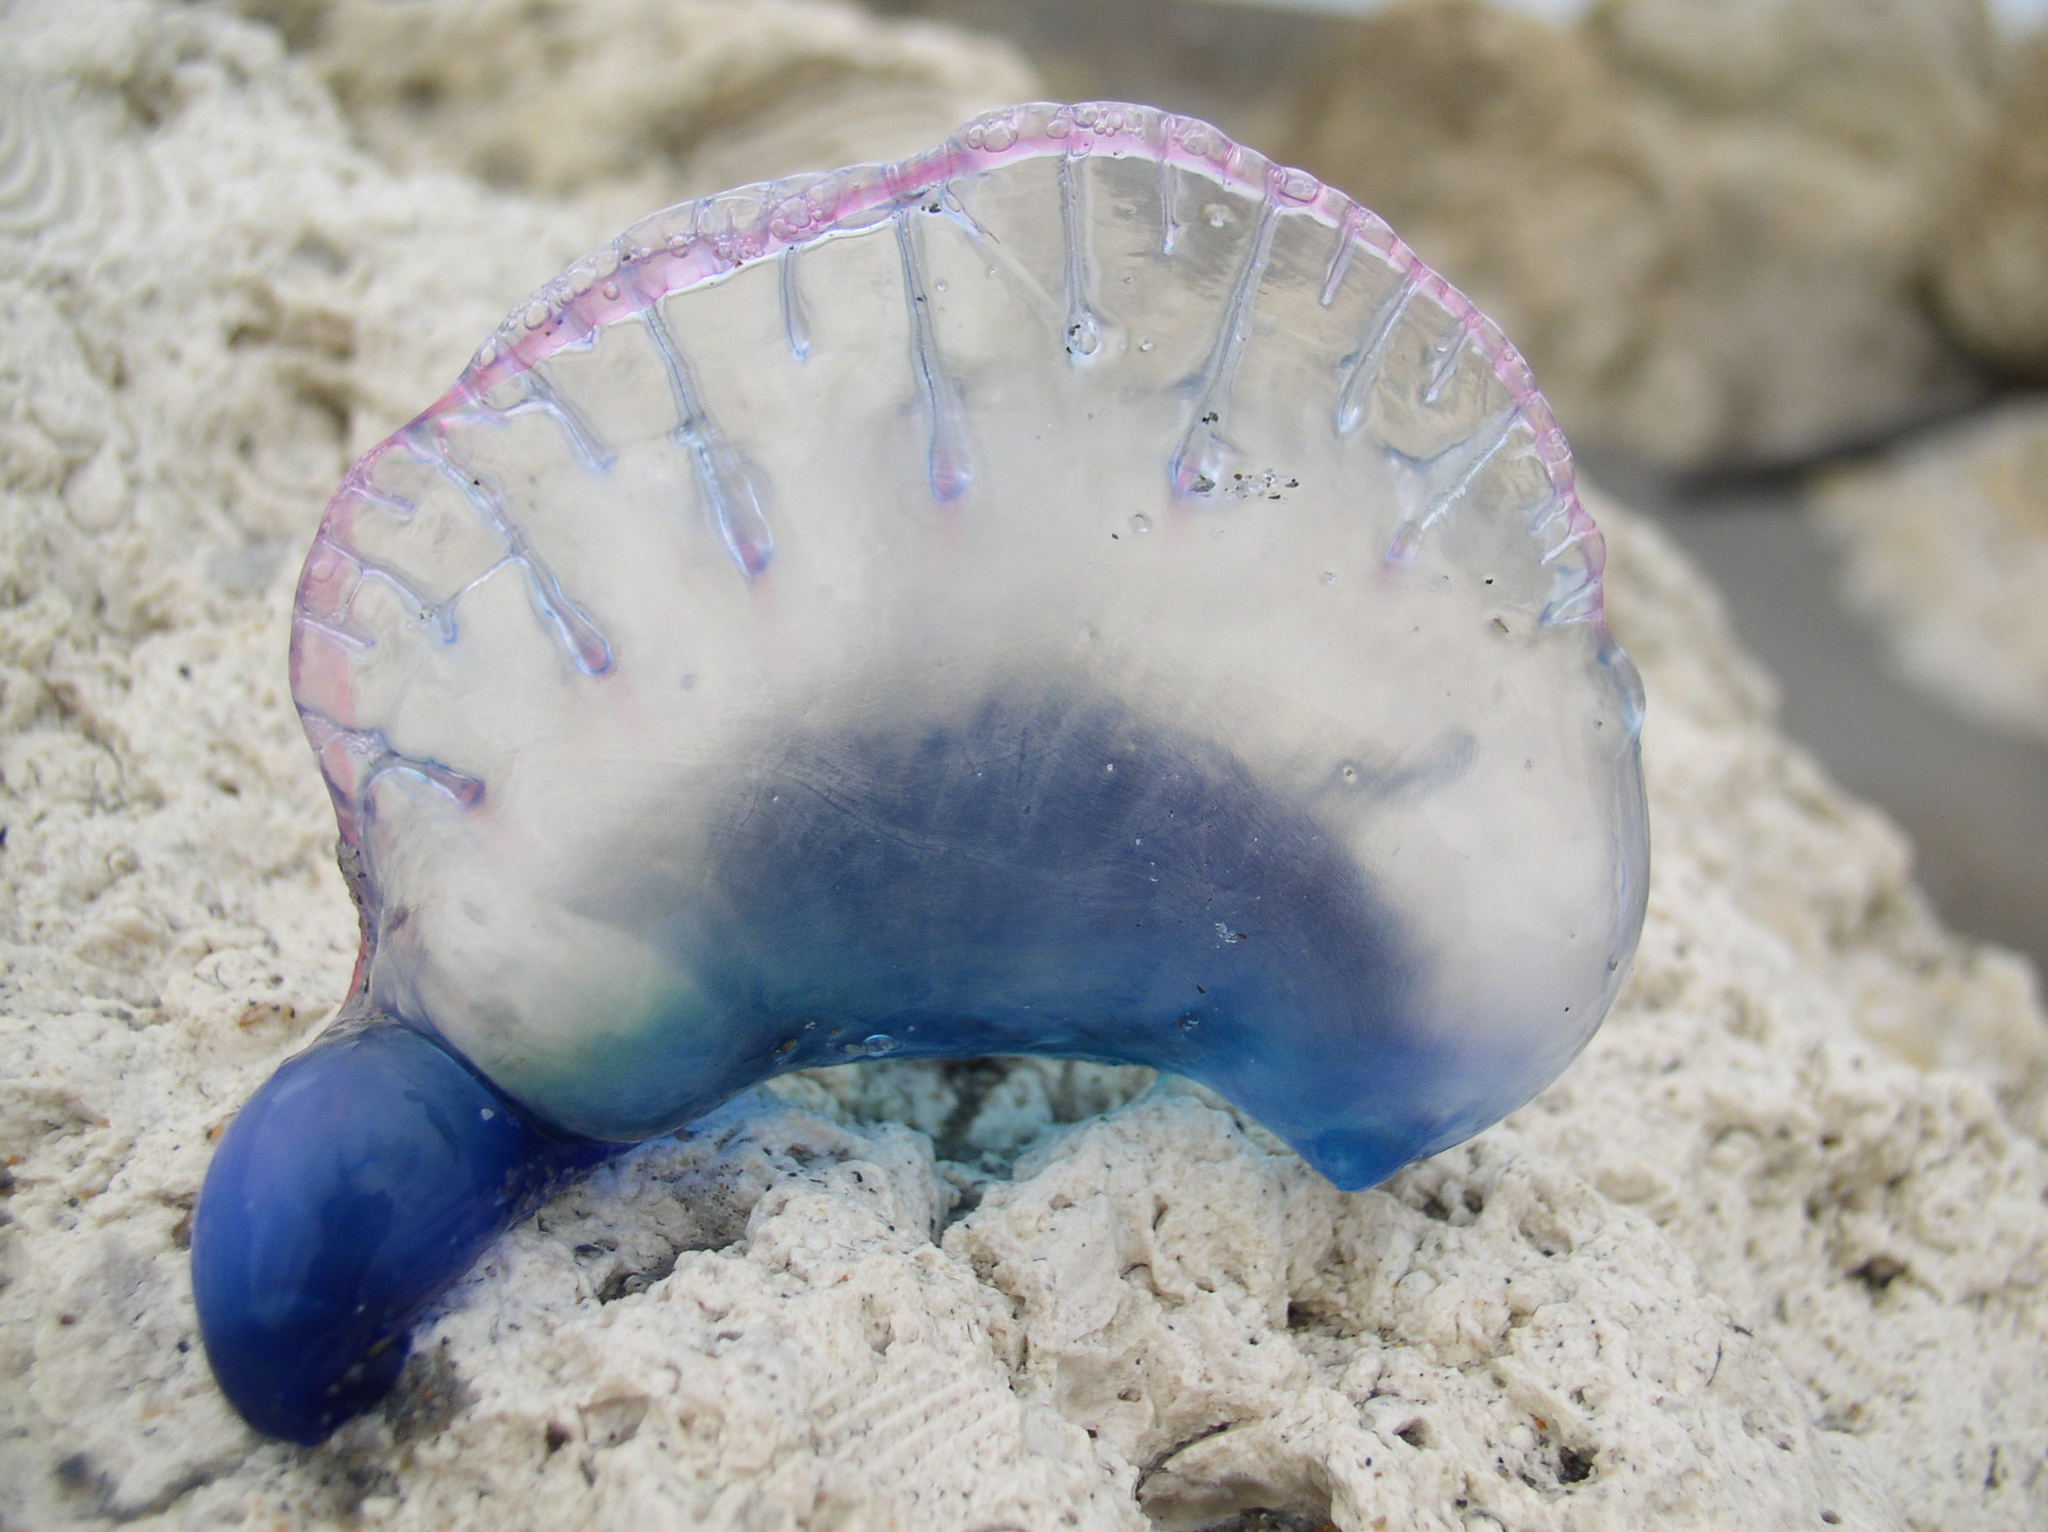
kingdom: Animalia
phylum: Cnidaria
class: Hydrozoa
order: Siphonophorae
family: Physaliidae
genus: Physalia
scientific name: Physalia physalis
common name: Portuguese man-of-war
